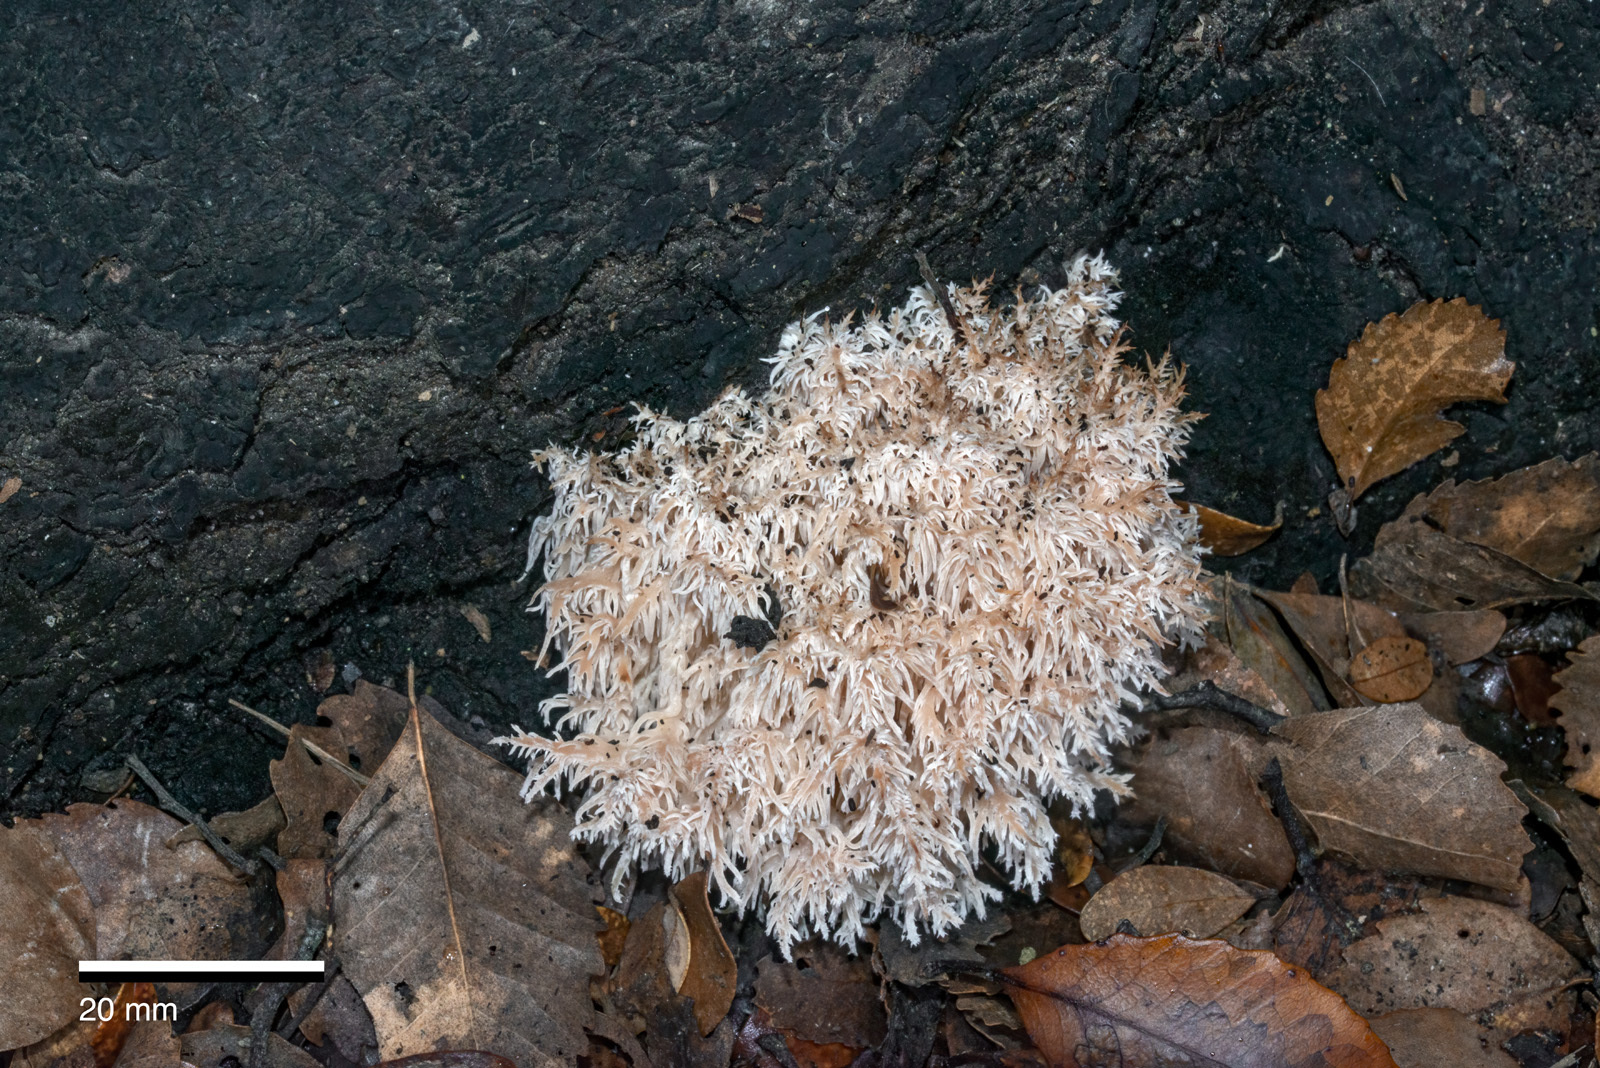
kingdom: Fungi
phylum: Basidiomycota
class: Agaricomycetes
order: Russulales
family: Hericiaceae
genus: Hericium
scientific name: Hericium novae-zealandiae
